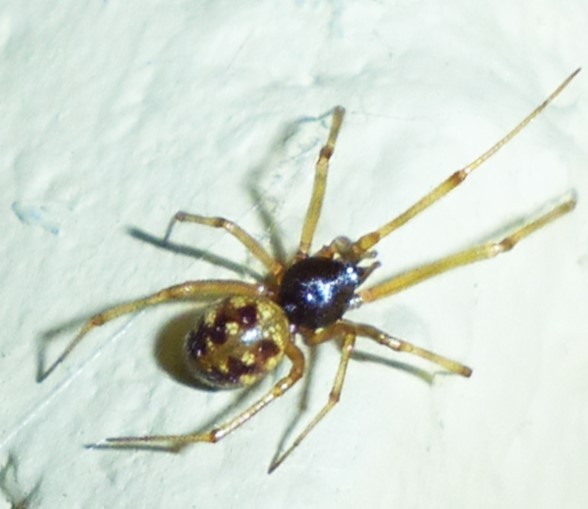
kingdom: Animalia
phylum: Arthropoda
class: Arachnida
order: Araneae
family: Theridiidae
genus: Steatoda
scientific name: Steatoda triangulosa
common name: Triangulate bud spider
